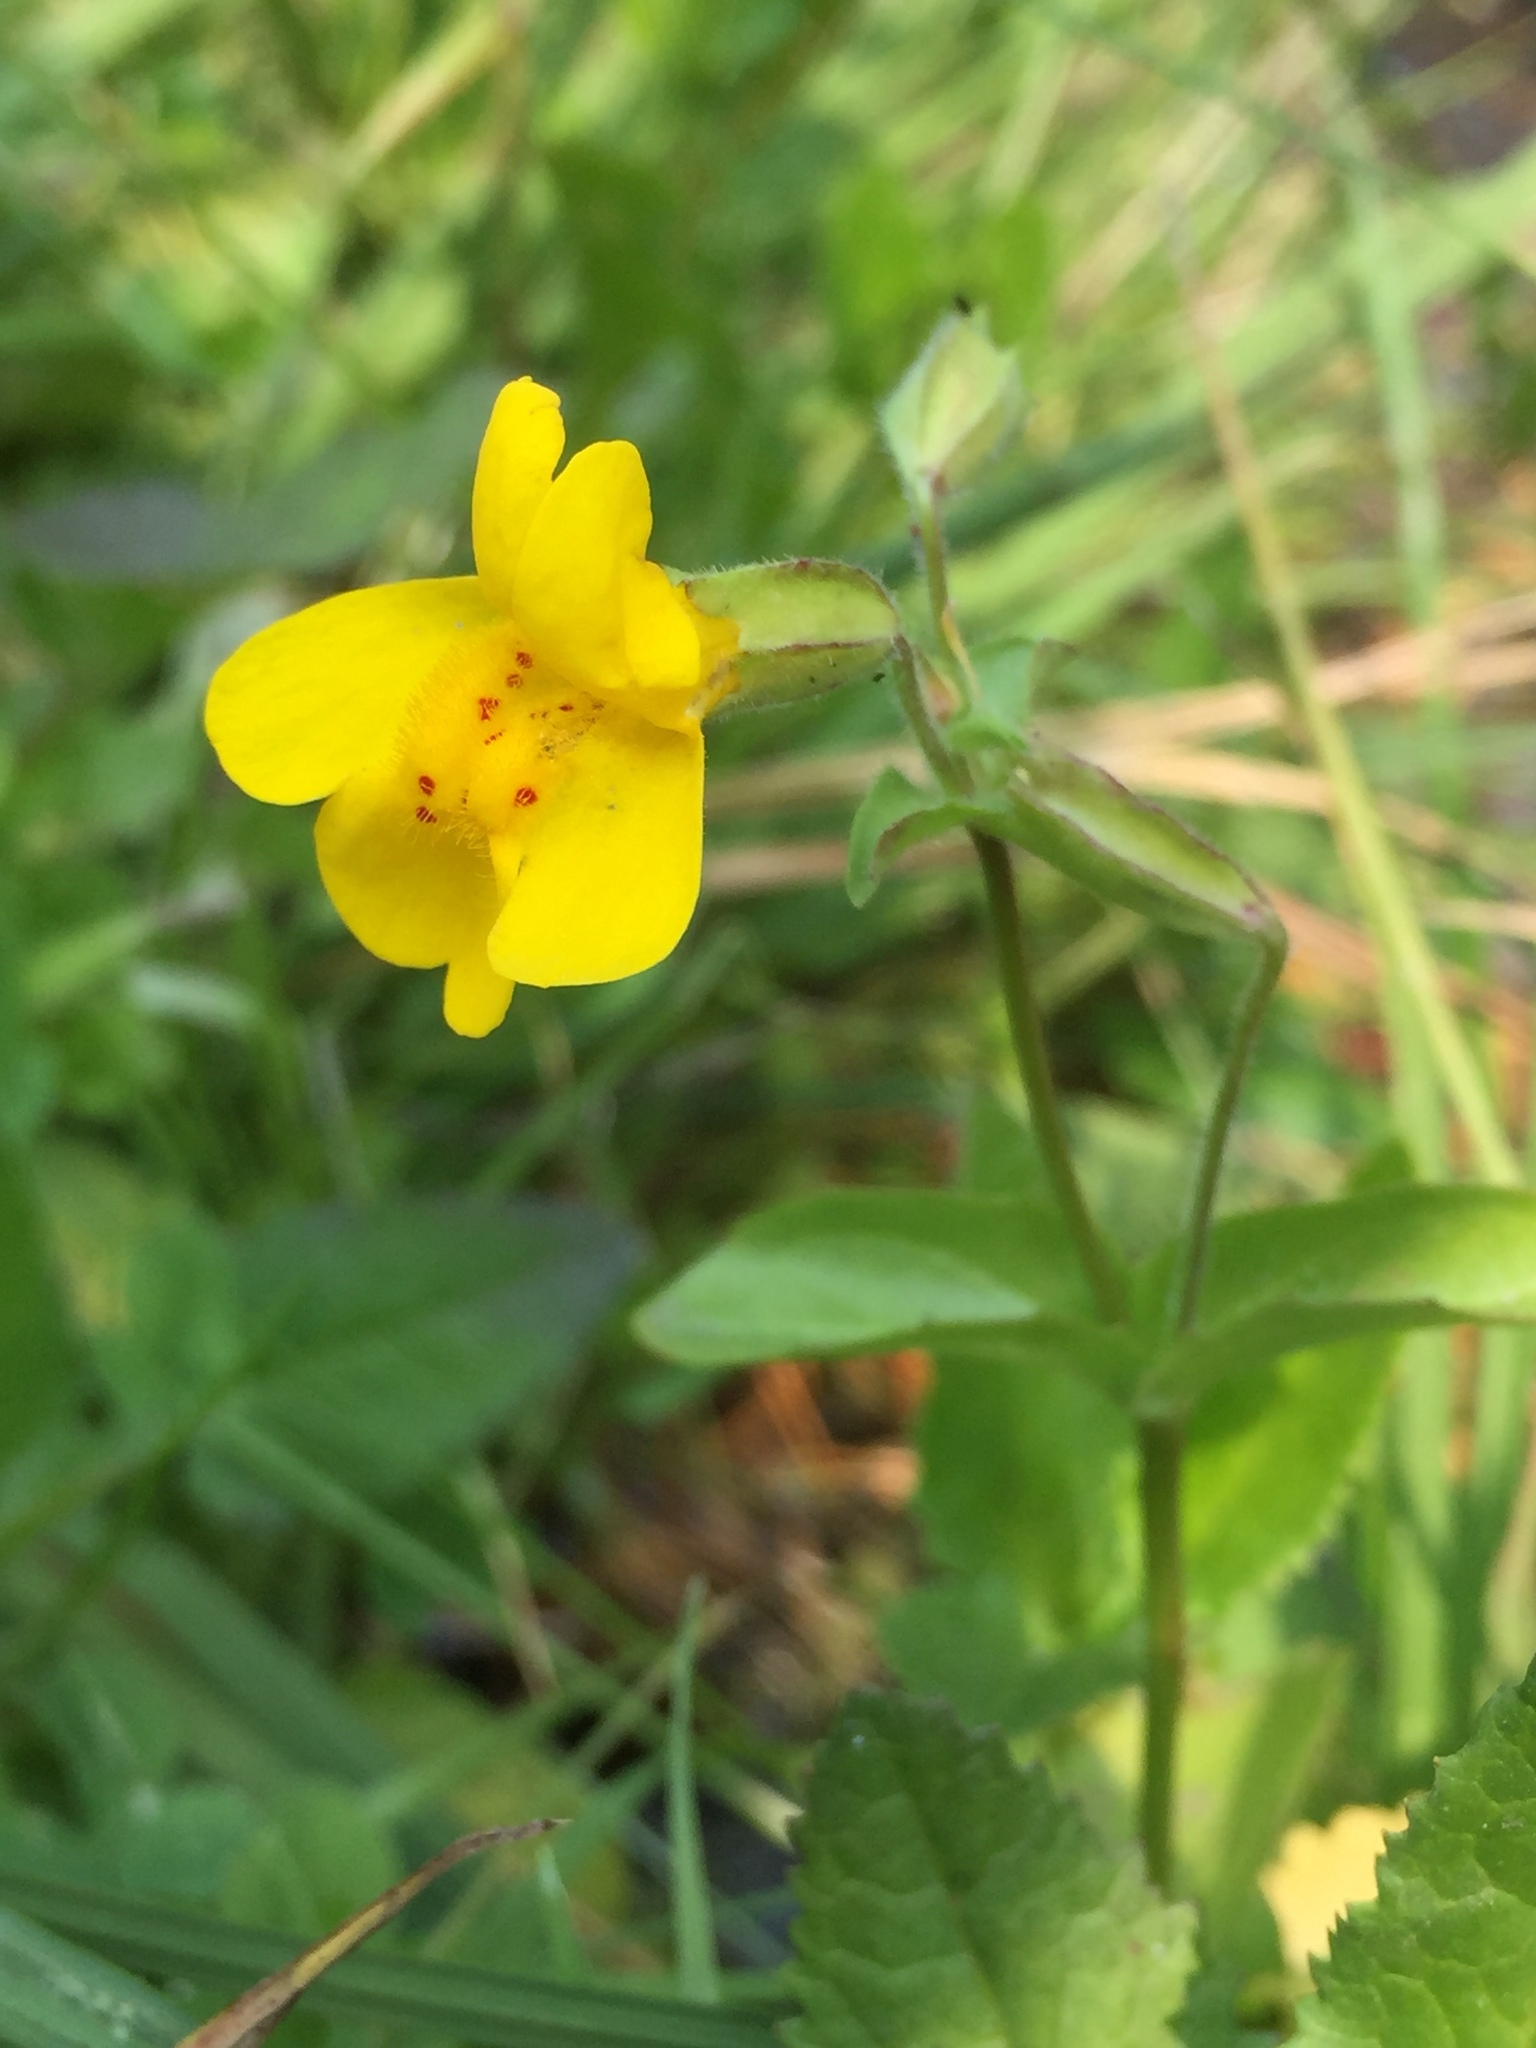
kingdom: Plantae
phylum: Tracheophyta
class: Magnoliopsida
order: Lamiales
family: Phrymaceae
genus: Erythranthe
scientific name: Erythranthe tilingii
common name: Subalpine monkey-flower
